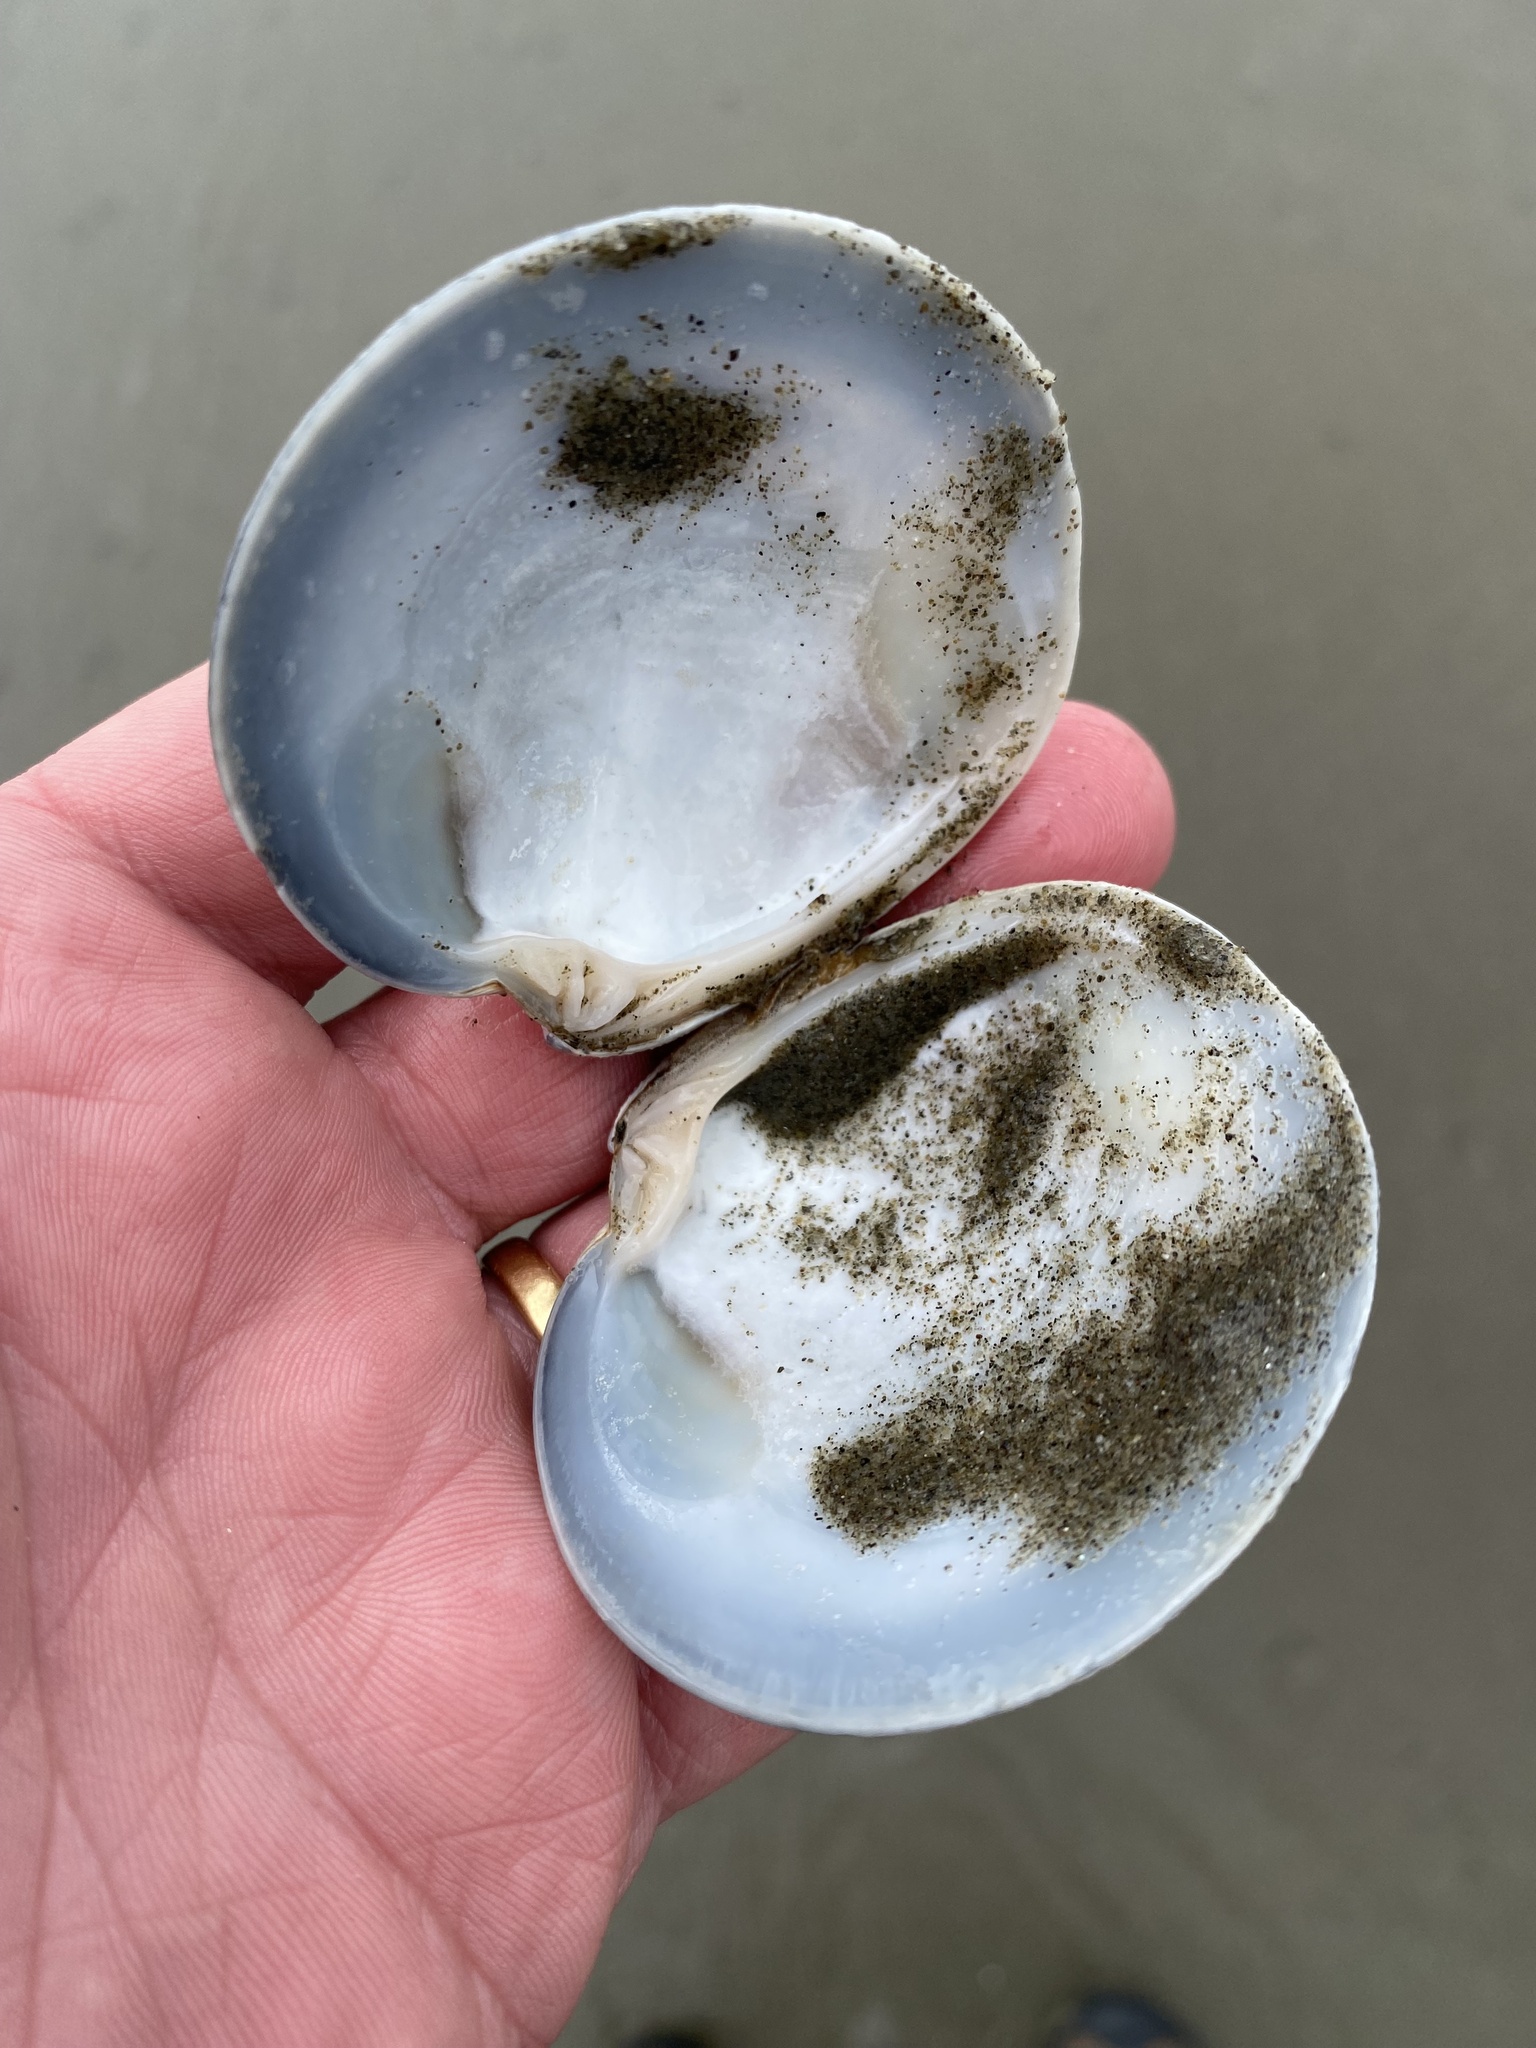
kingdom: Animalia
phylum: Mollusca
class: Bivalvia
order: Venerida
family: Veneridae
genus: Dosinia
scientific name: Dosinia anus
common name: Old-woman dosinia
